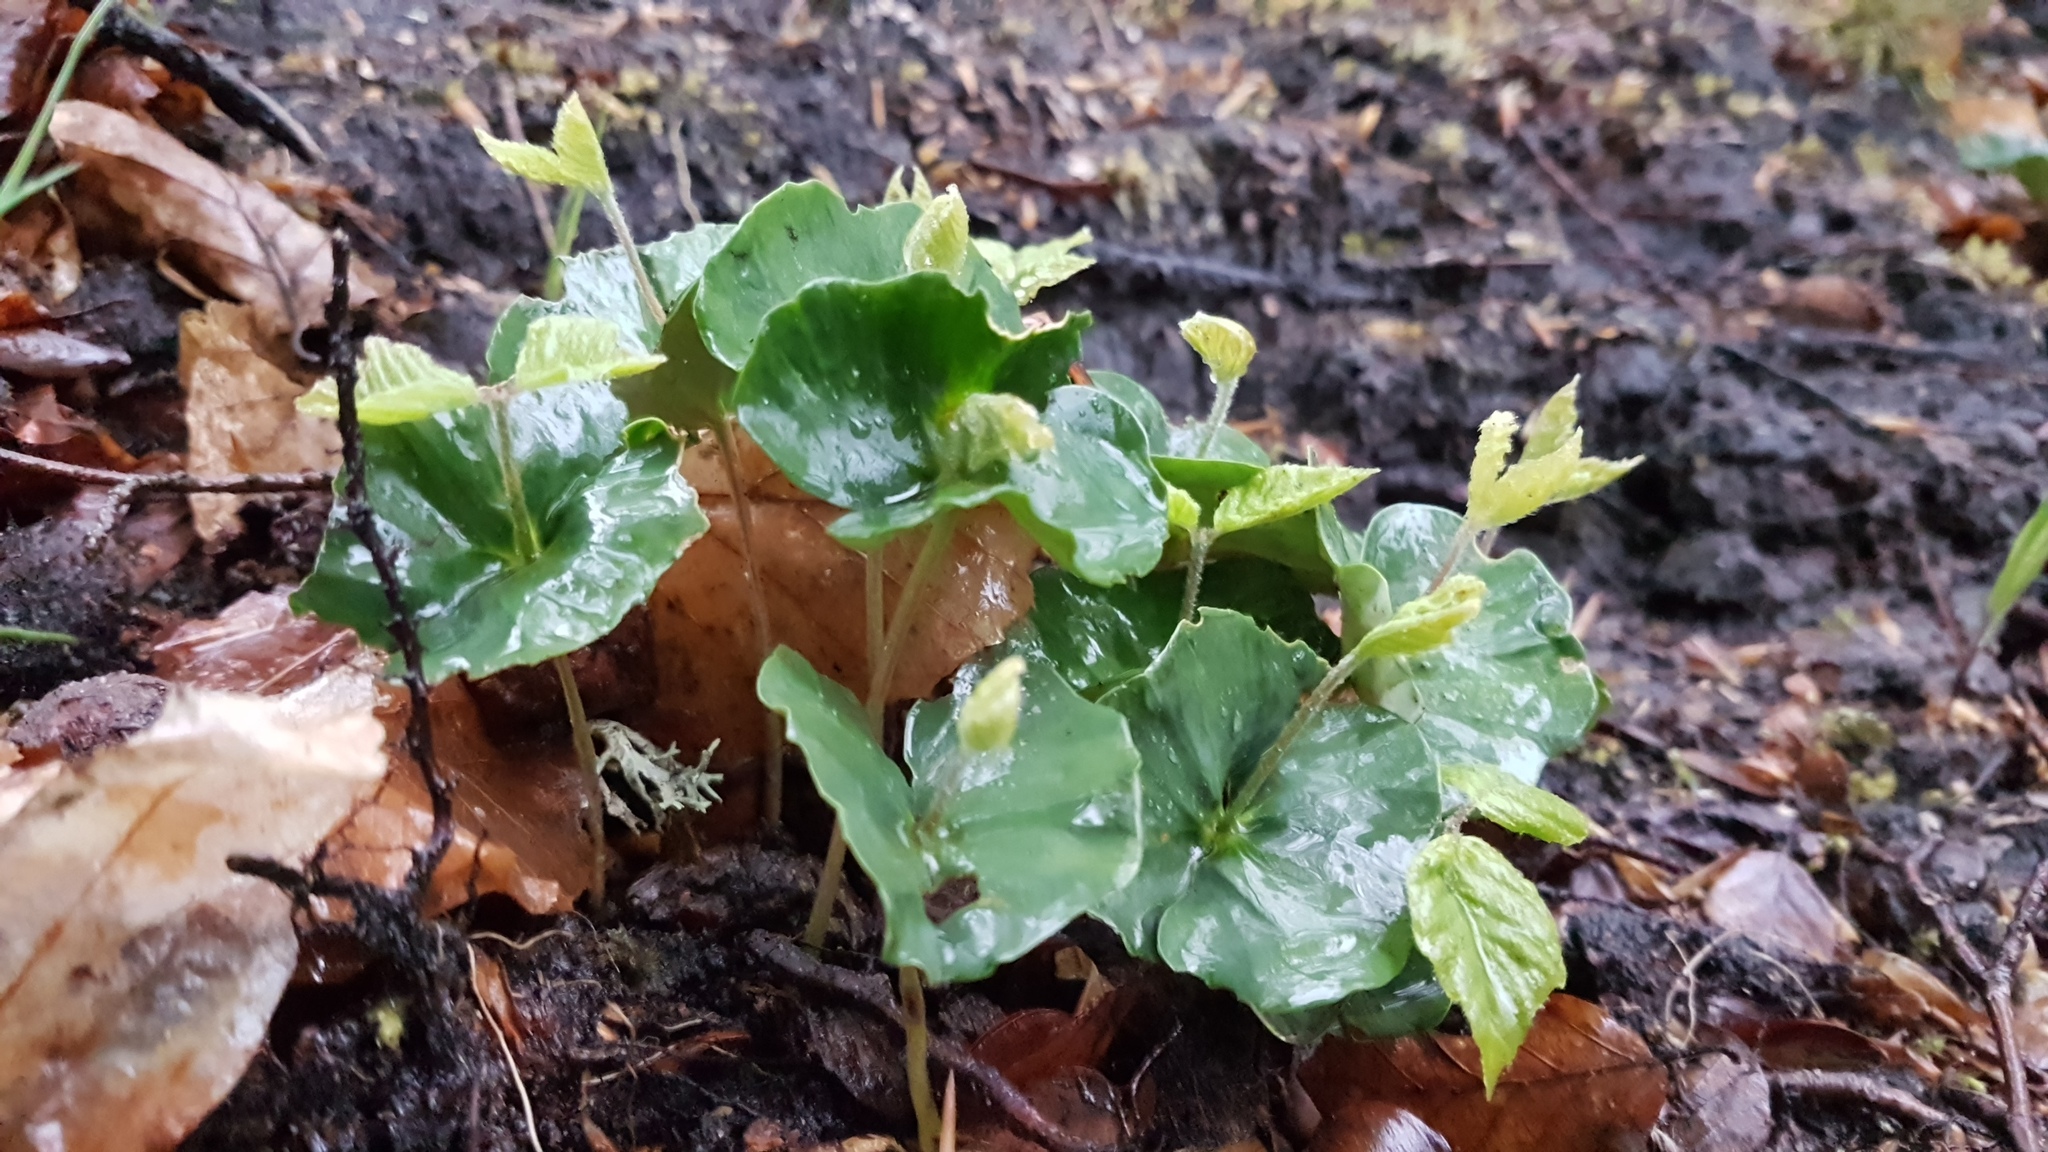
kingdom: Plantae
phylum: Tracheophyta
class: Magnoliopsida
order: Fagales
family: Fagaceae
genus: Fagus
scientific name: Fagus sylvatica
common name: Beech
